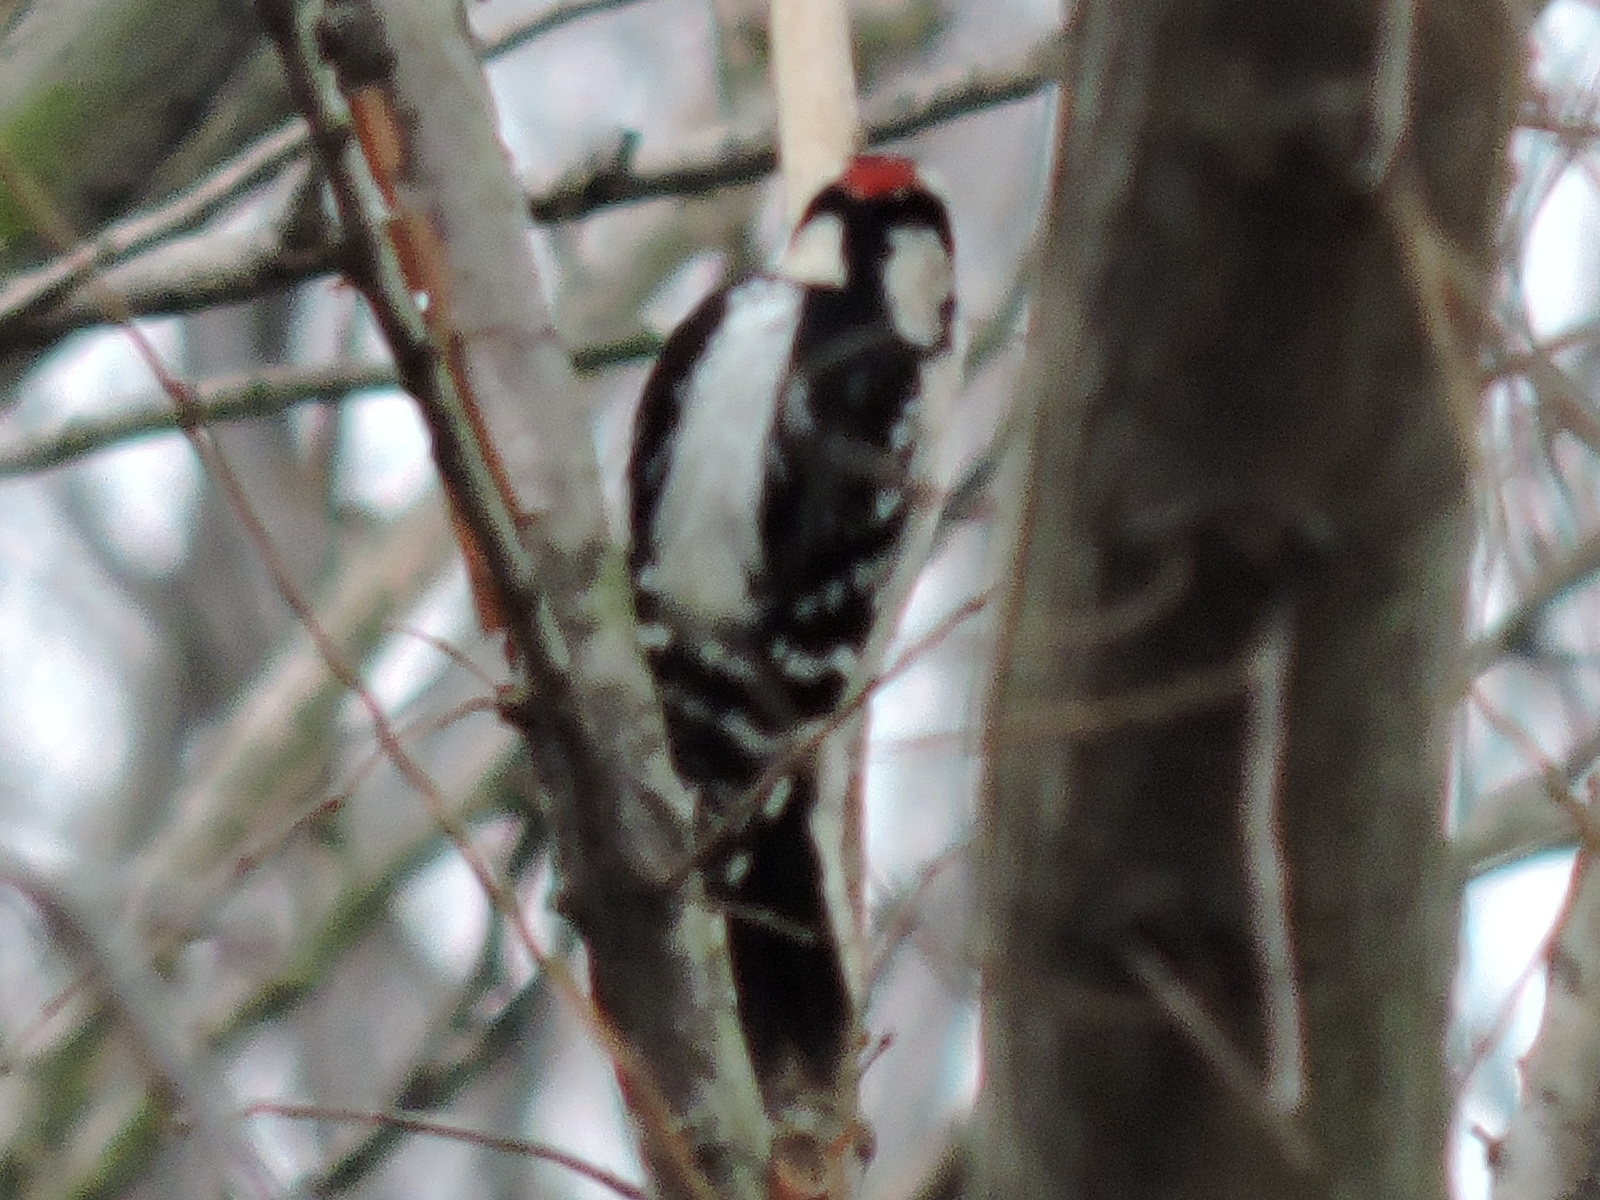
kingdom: Animalia
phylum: Chordata
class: Aves
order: Piciformes
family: Picidae
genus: Dryobates
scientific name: Dryobates pubescens
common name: Downy woodpecker
